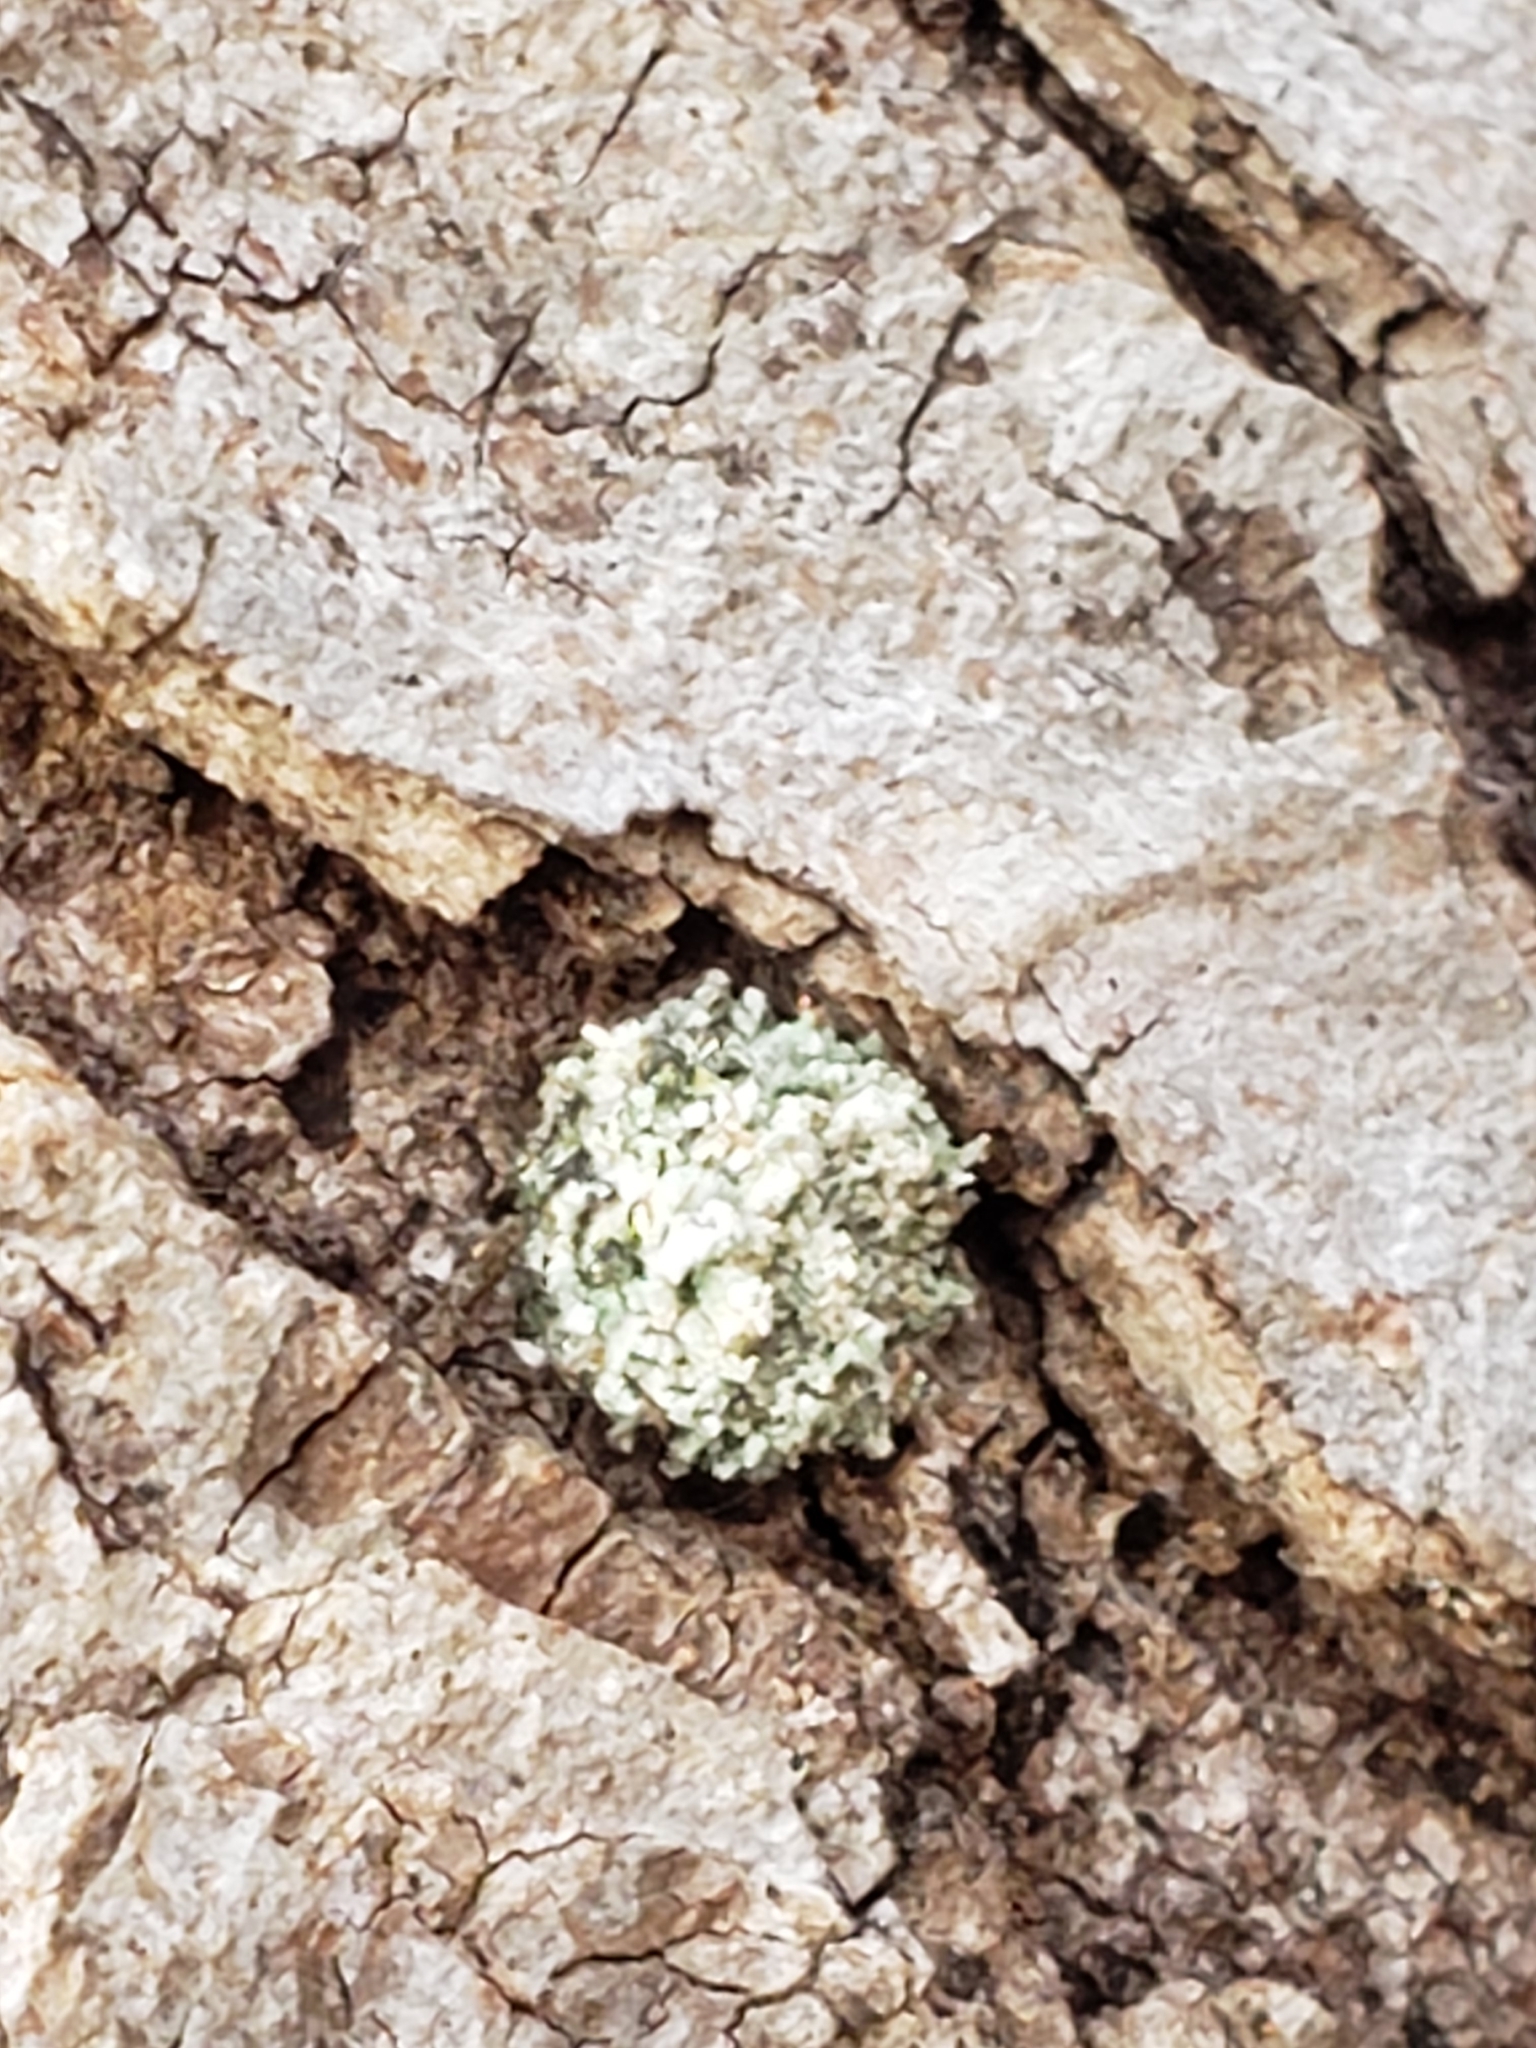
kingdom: Animalia
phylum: Arthropoda
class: Insecta
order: Neuroptera
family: Chrysopidae
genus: Leucochrysa
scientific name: Leucochrysa pavida
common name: Lichen-carrying green lacewing
